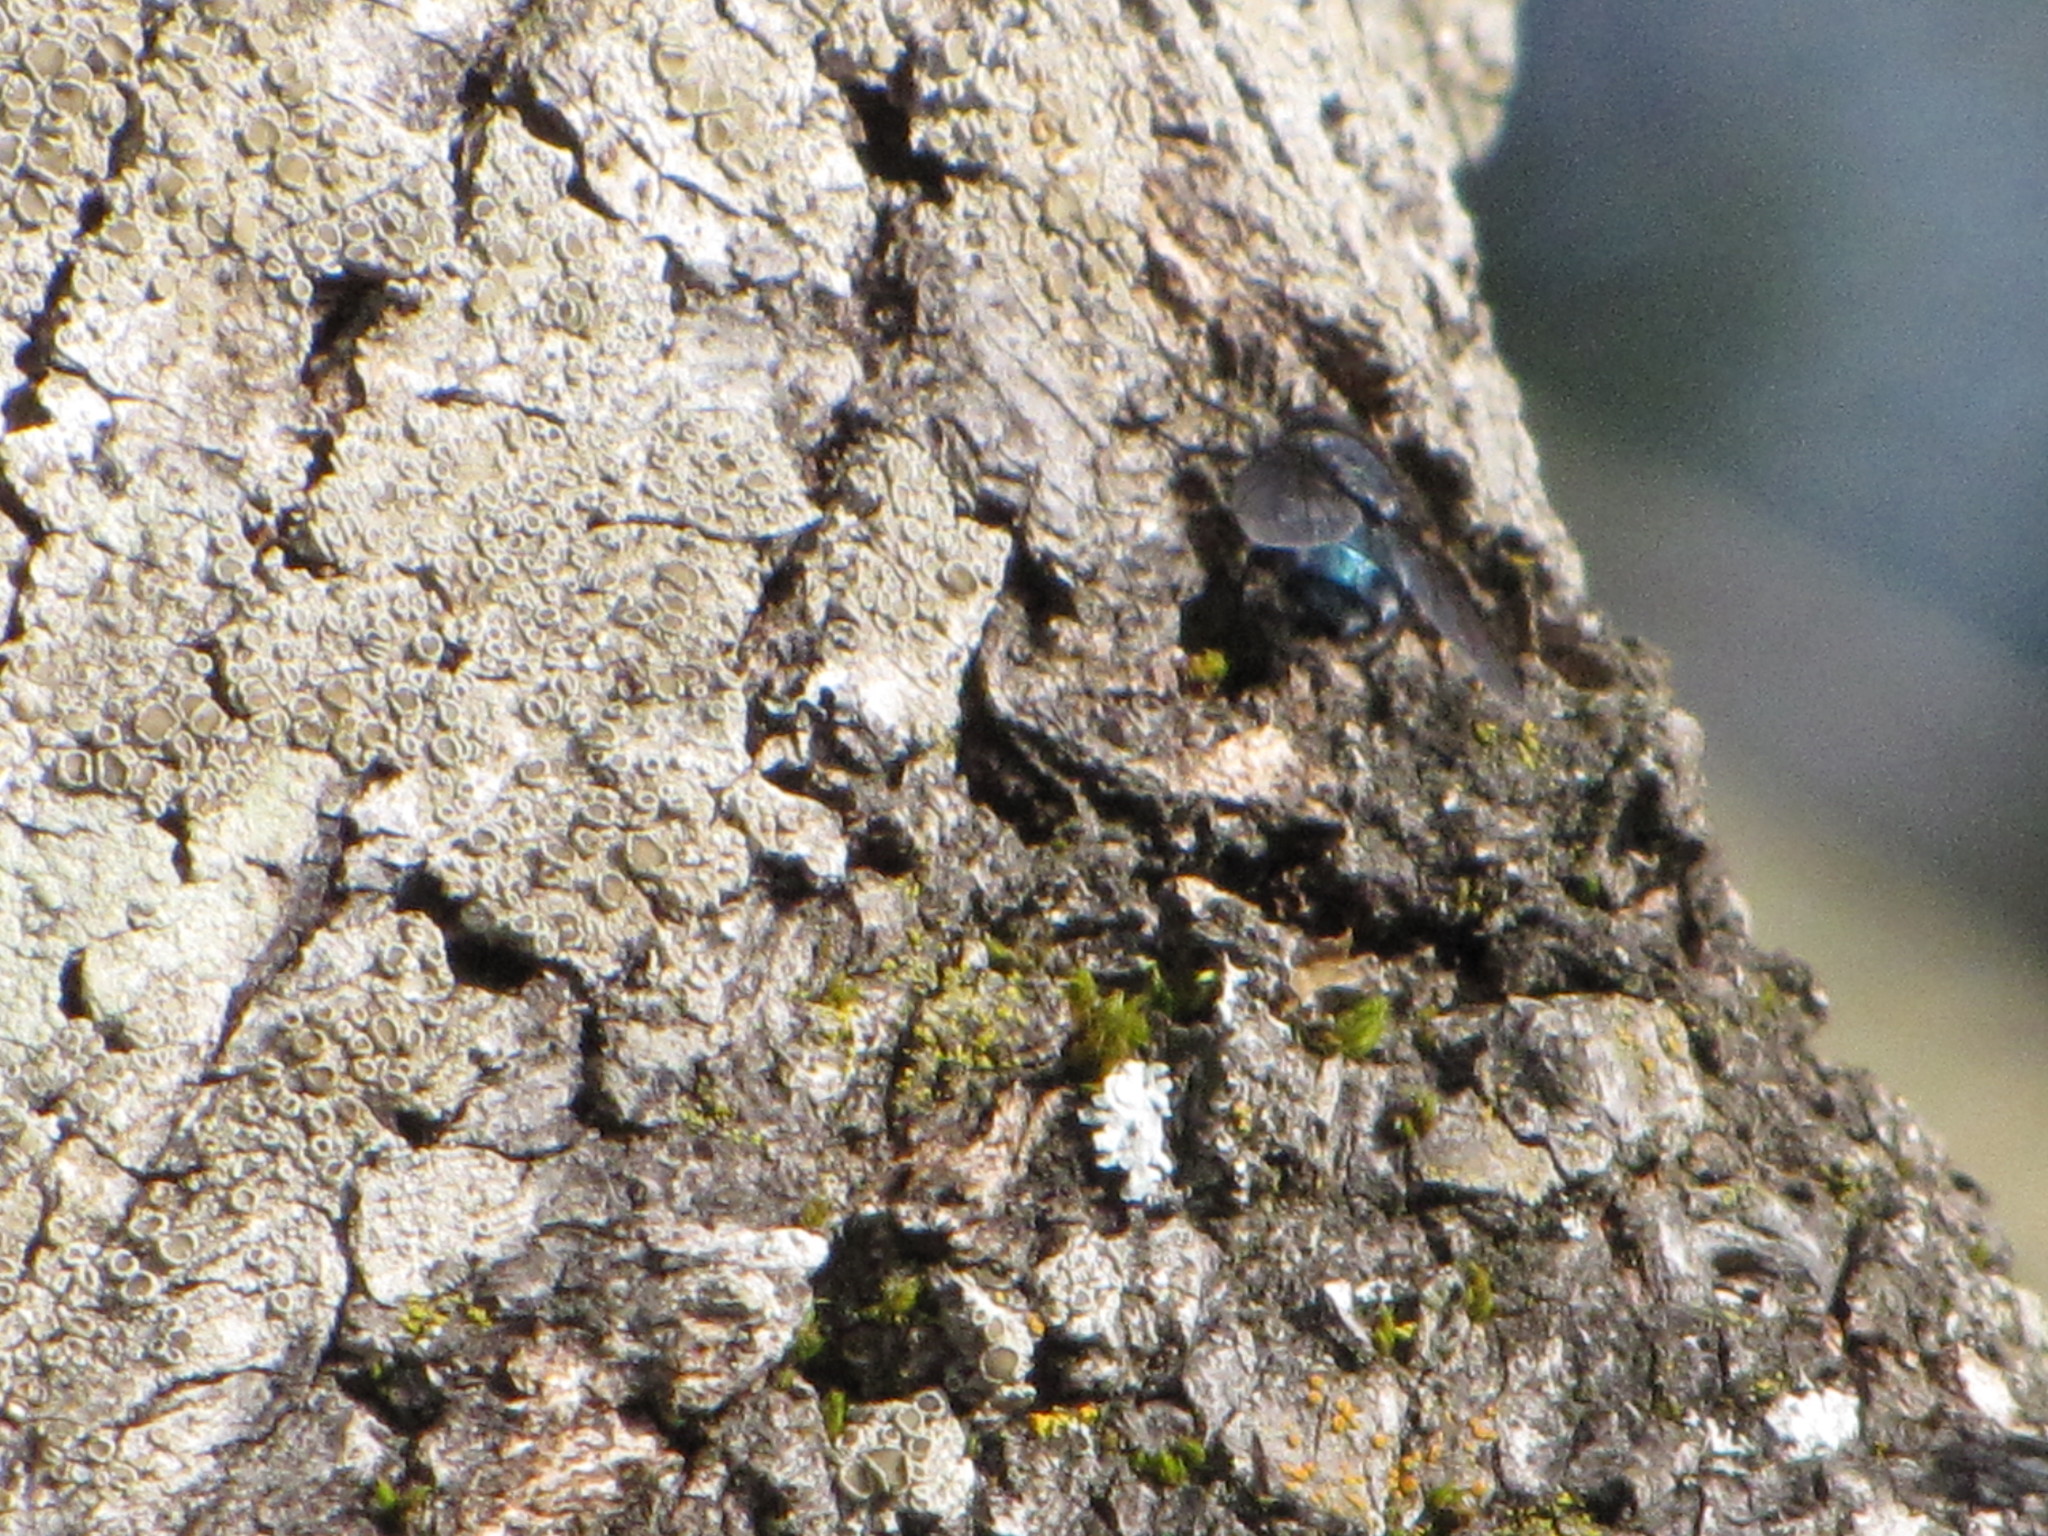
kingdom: Animalia
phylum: Arthropoda
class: Insecta
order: Diptera
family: Calliphoridae
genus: Calliphora
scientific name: Calliphora vicina
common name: Common blow flie
